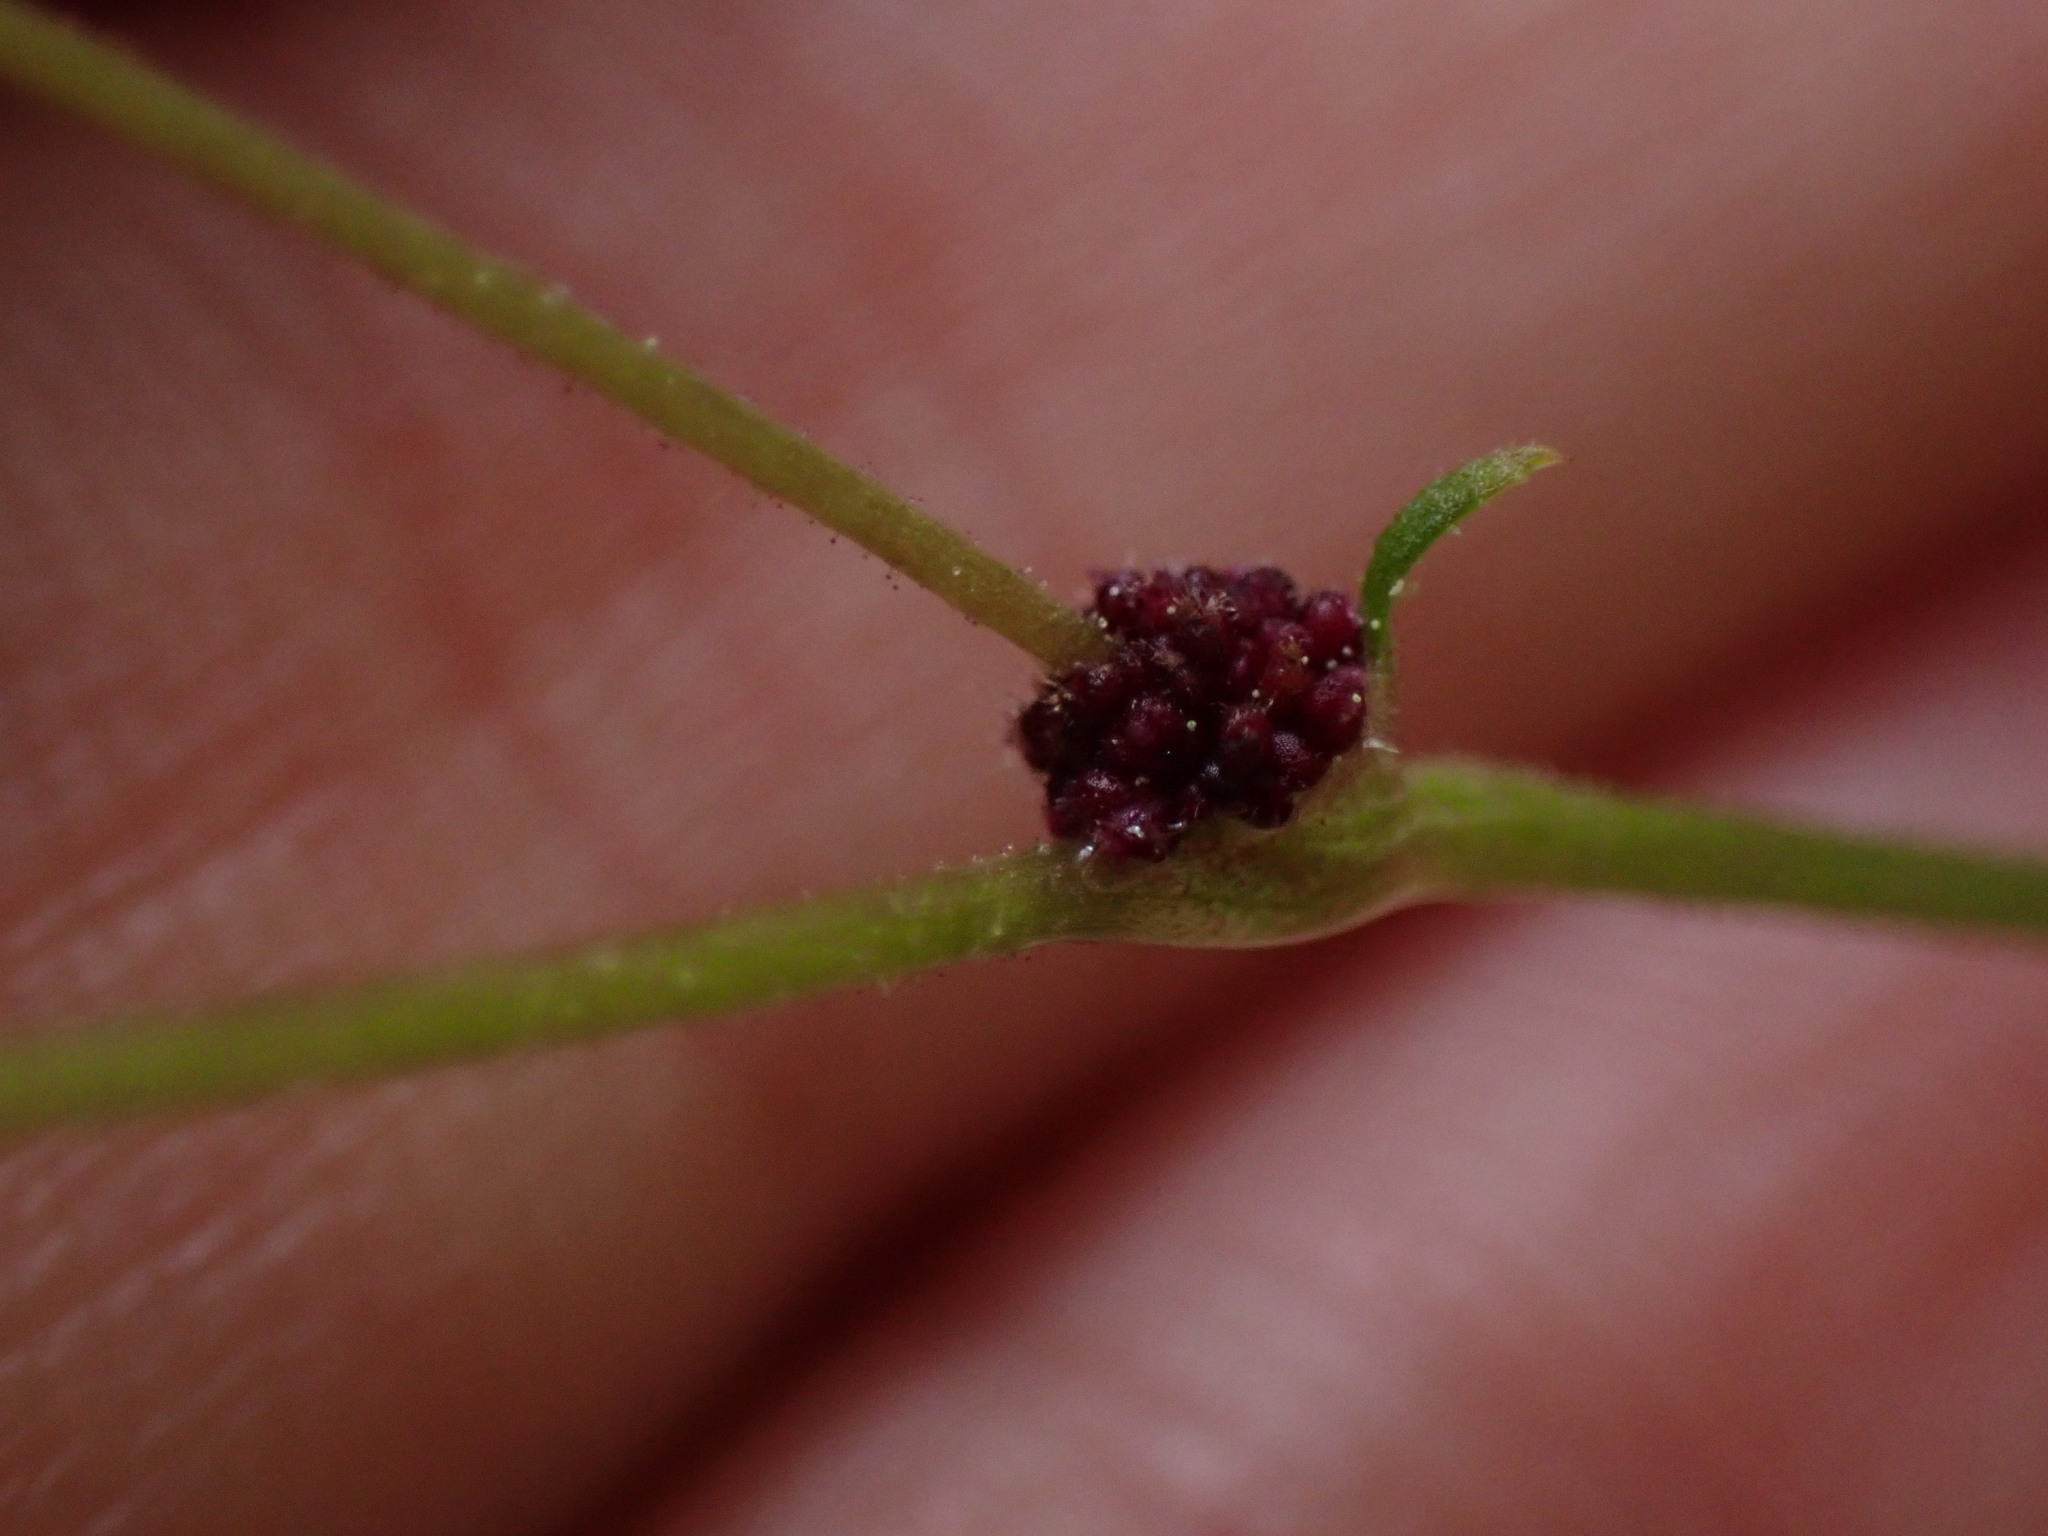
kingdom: Plantae
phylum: Tracheophyta
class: Magnoliopsida
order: Saxifragales
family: Saxifragaceae
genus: Lithophragma
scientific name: Lithophragma glabrum
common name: Bulbous prairie-star
